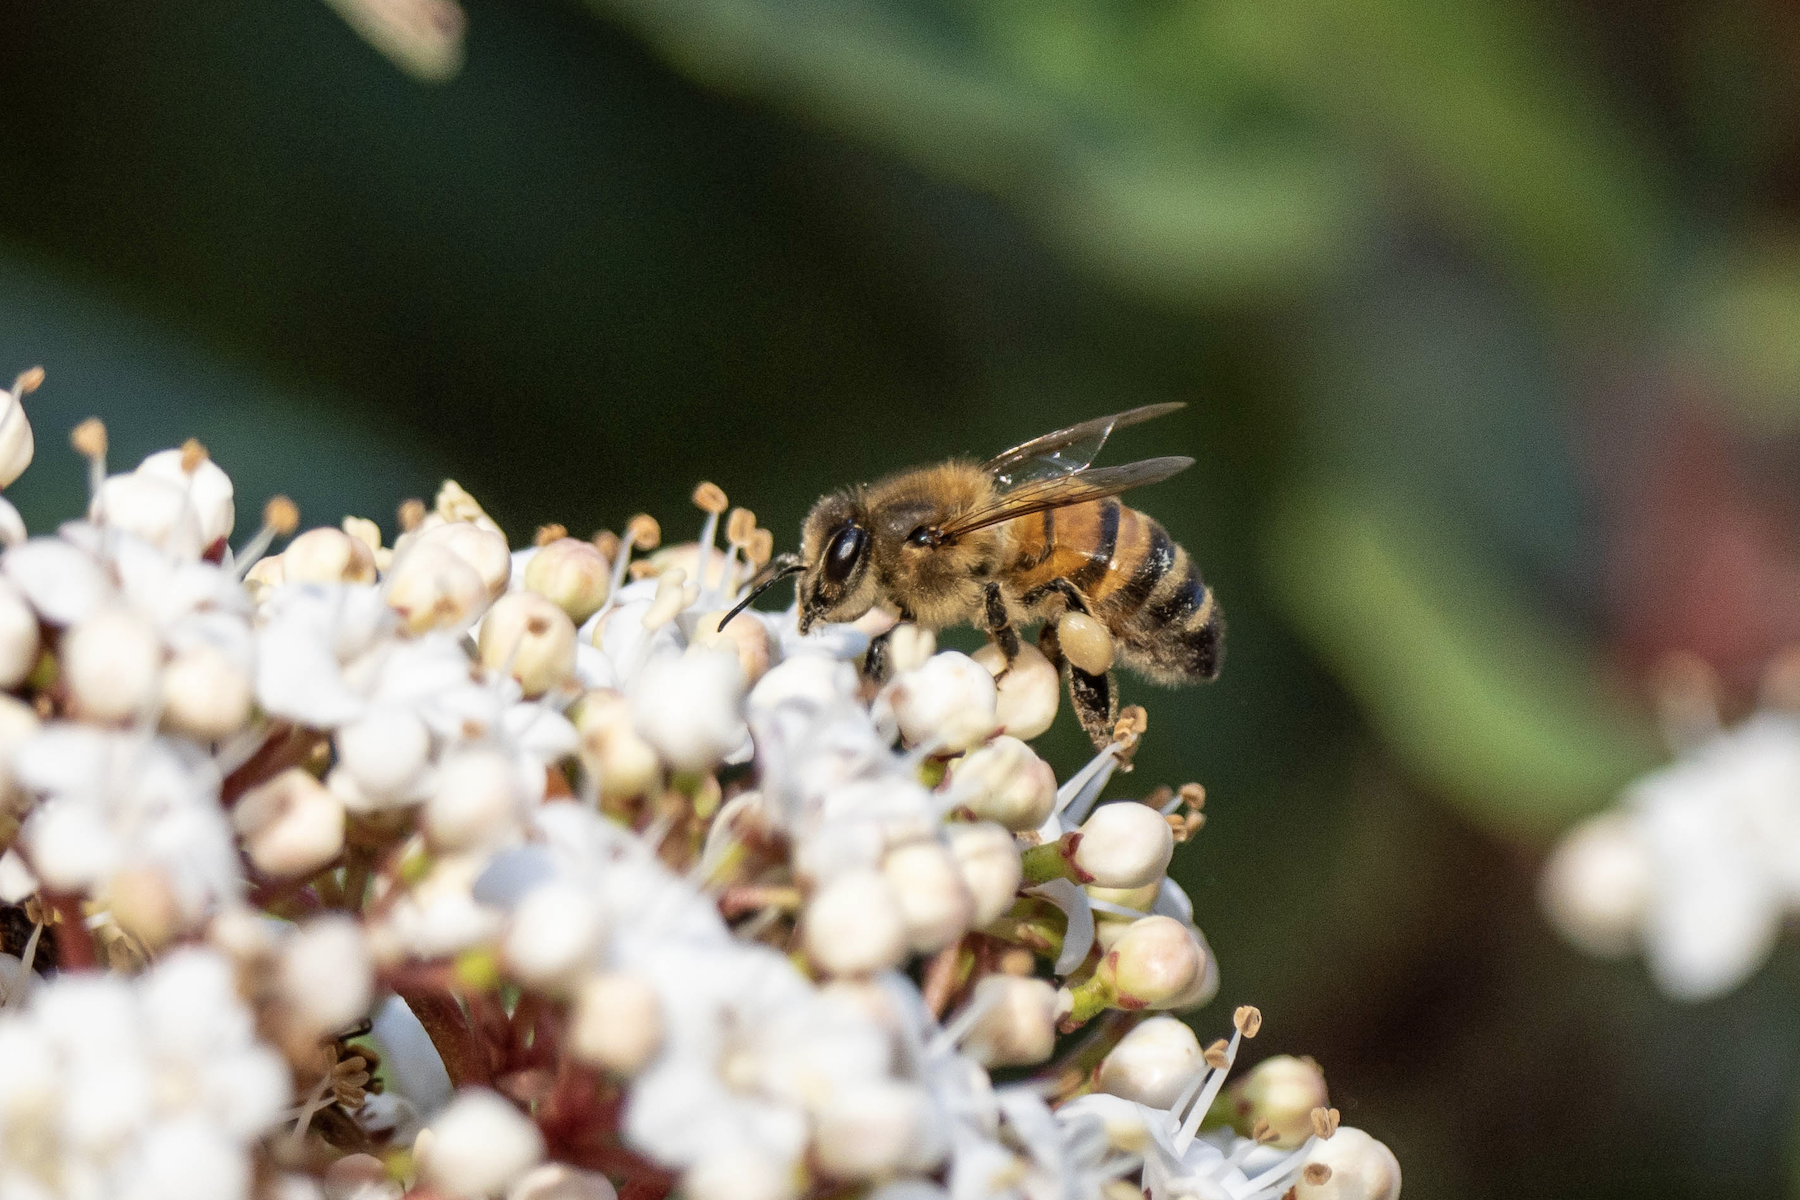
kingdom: Animalia
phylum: Arthropoda
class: Insecta
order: Hymenoptera
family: Apidae
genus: Apis
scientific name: Apis mellifera
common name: Honey bee
